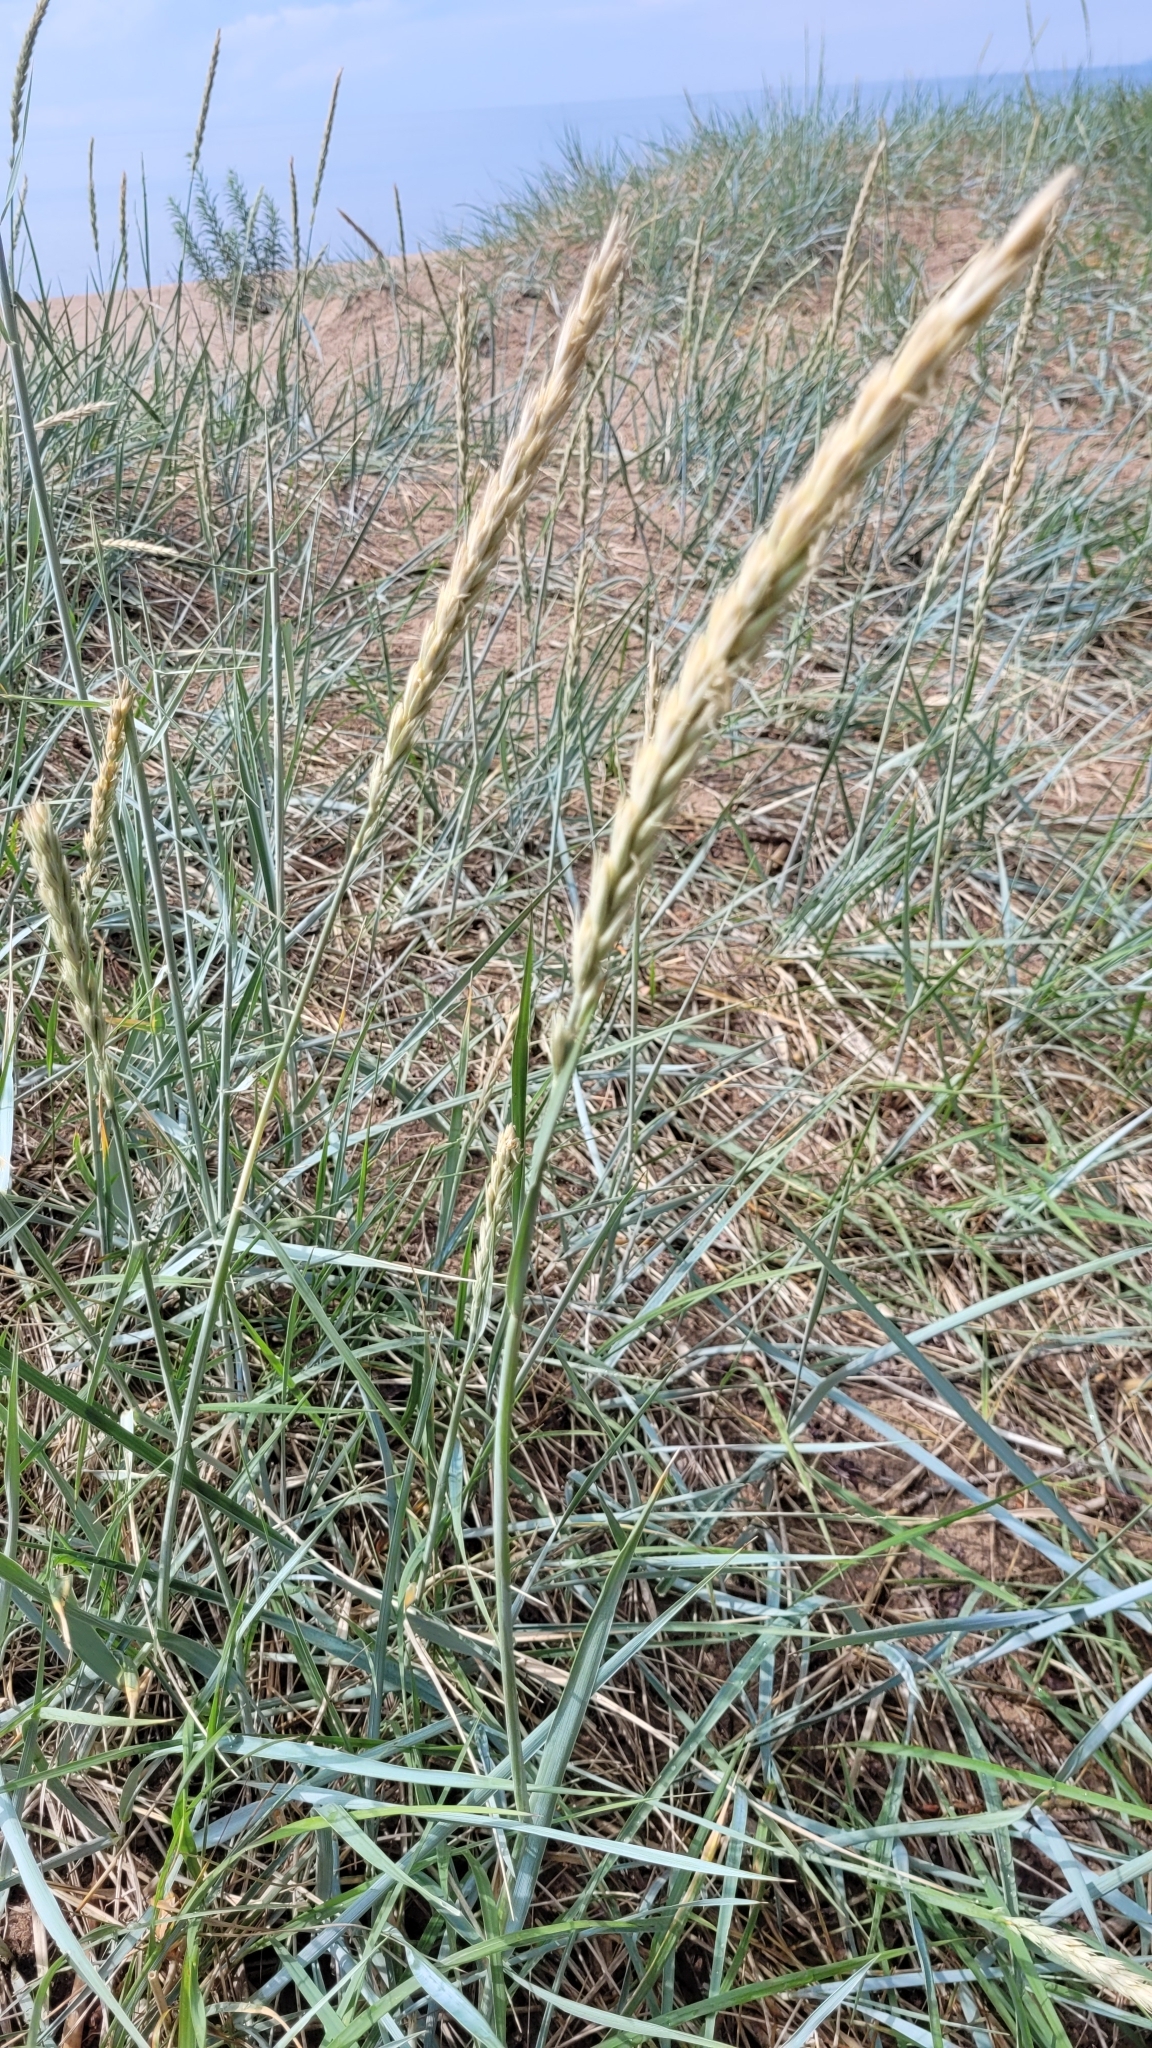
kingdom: Plantae
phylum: Tracheophyta
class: Liliopsida
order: Poales
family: Poaceae
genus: Leymus
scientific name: Leymus arenarius
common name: Lyme-grass
